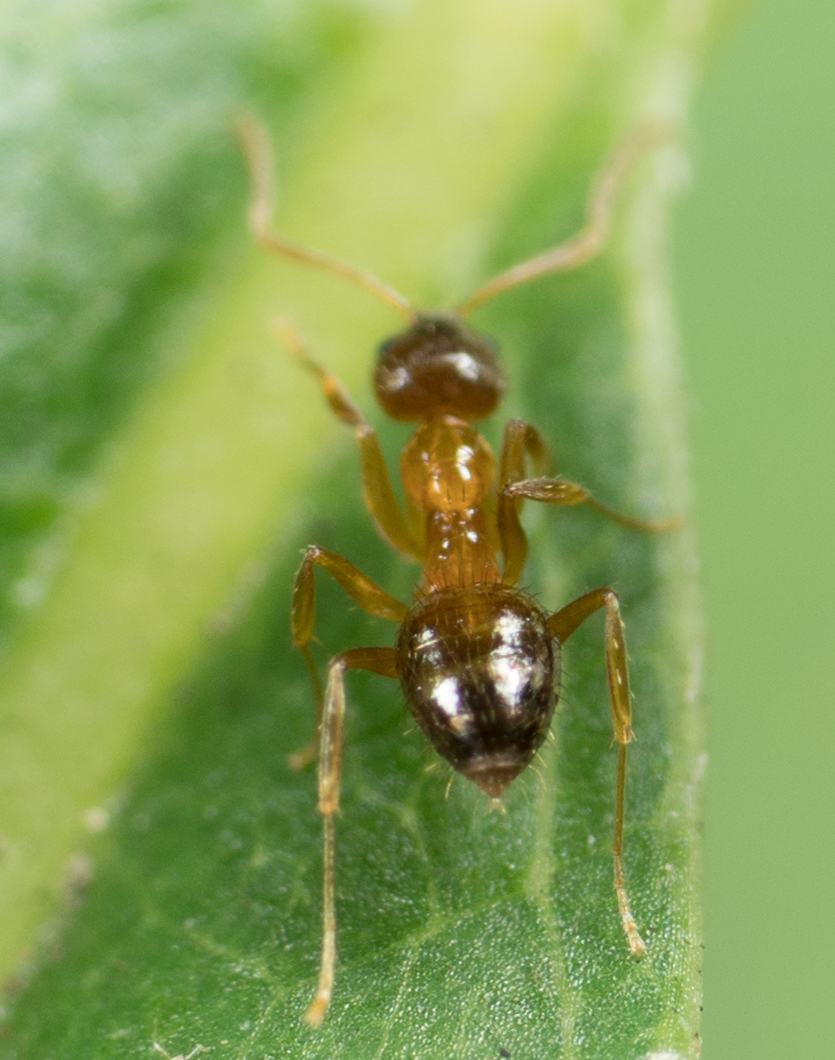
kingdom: Animalia
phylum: Arthropoda
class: Insecta
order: Hymenoptera
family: Formicidae
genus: Paratrechina
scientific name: Paratrechina flavipes
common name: Eastern asian formicine ant
